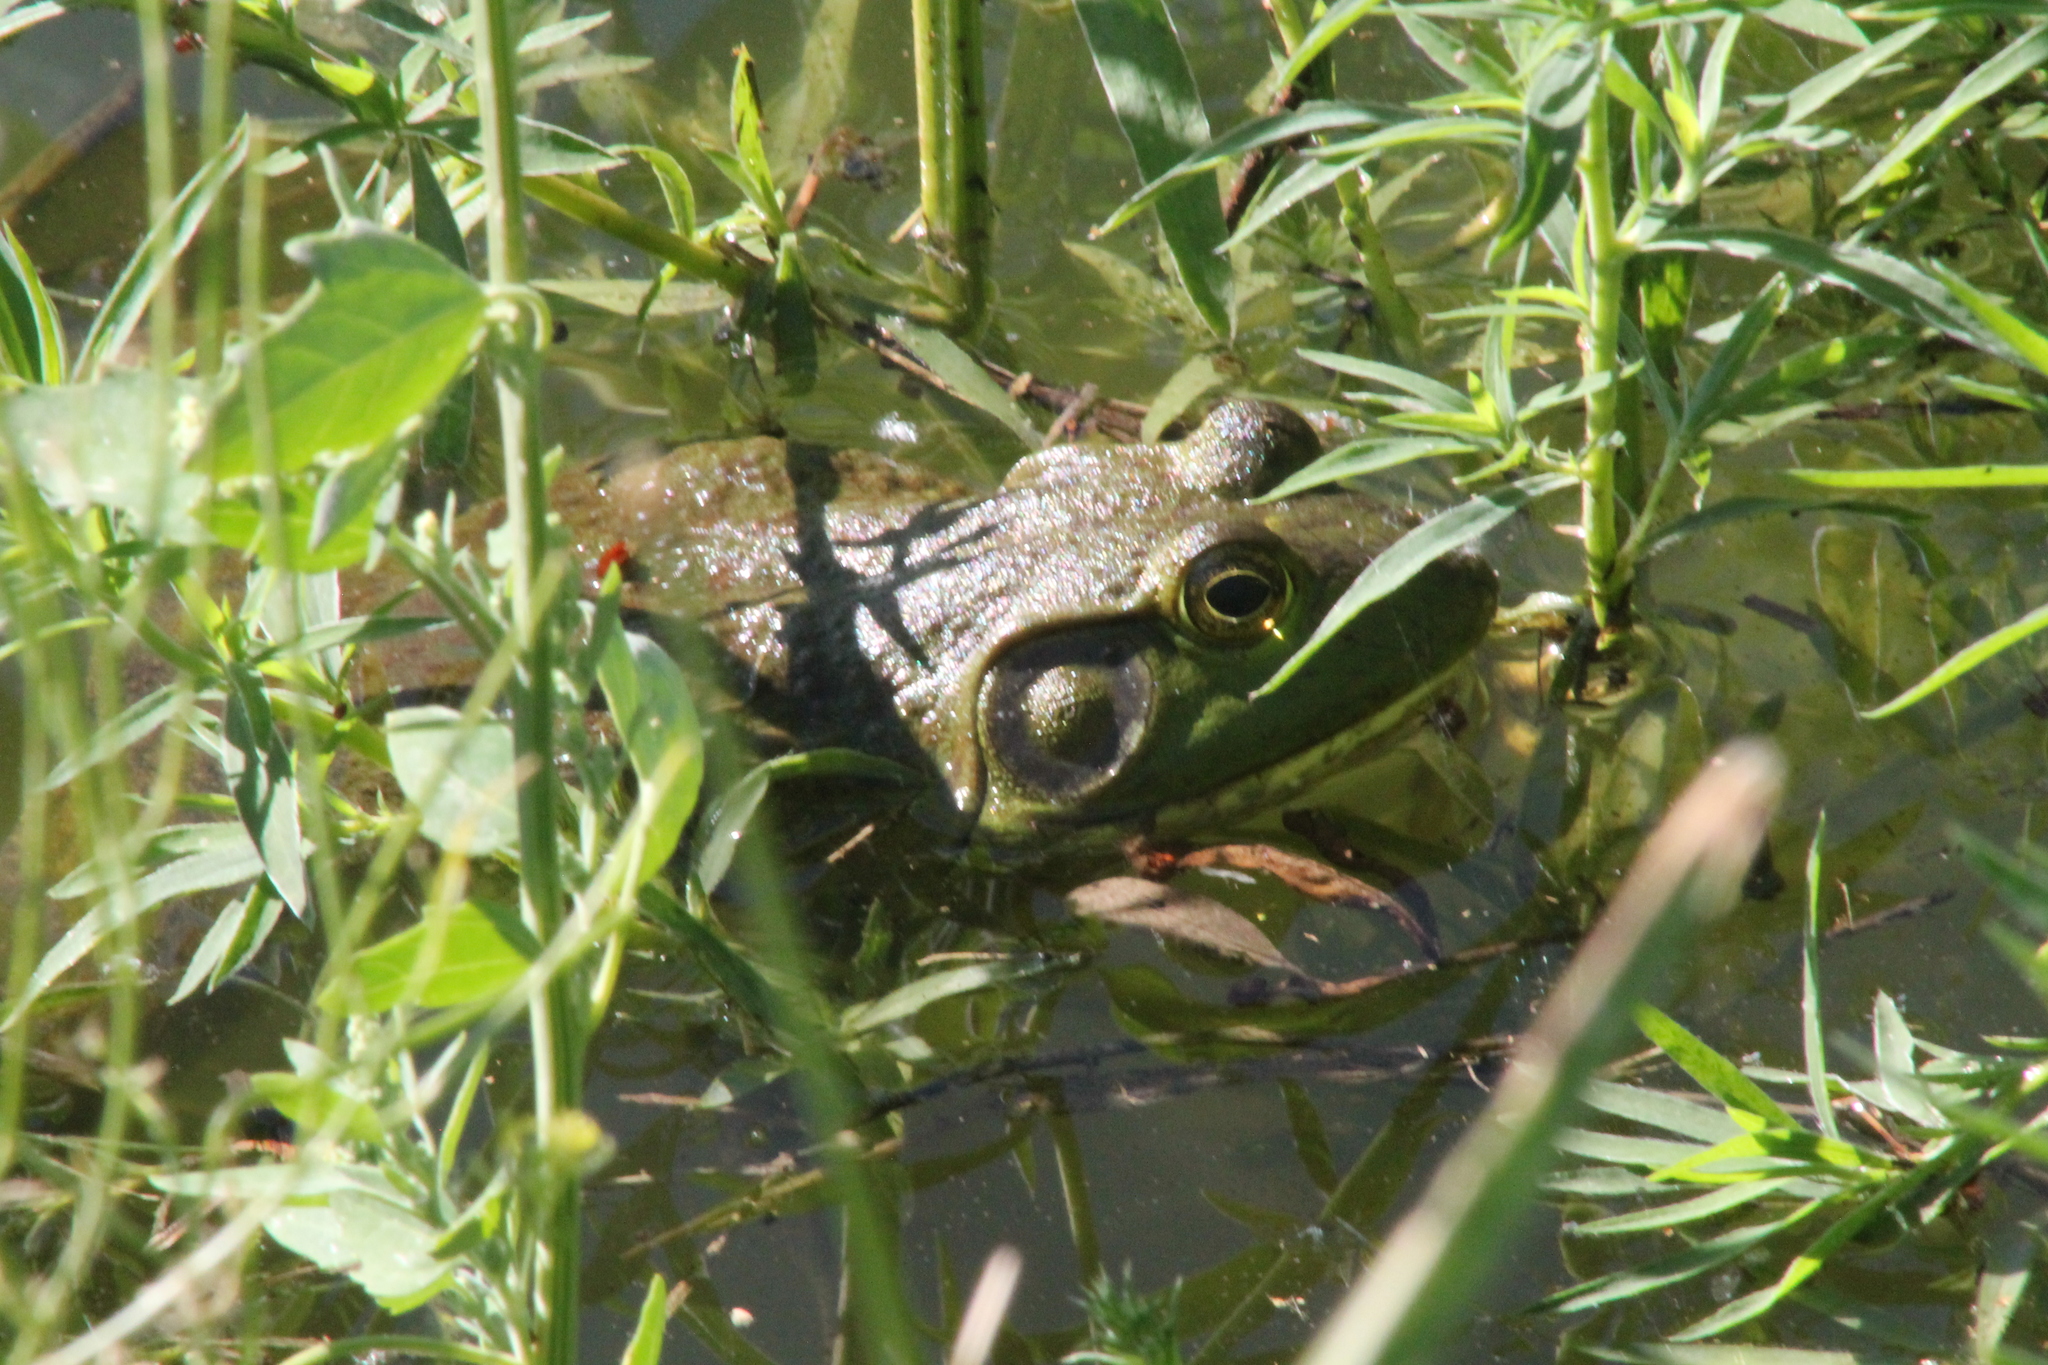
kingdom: Animalia
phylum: Chordata
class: Amphibia
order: Anura
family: Ranidae
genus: Lithobates
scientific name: Lithobates catesbeianus
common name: American bullfrog
